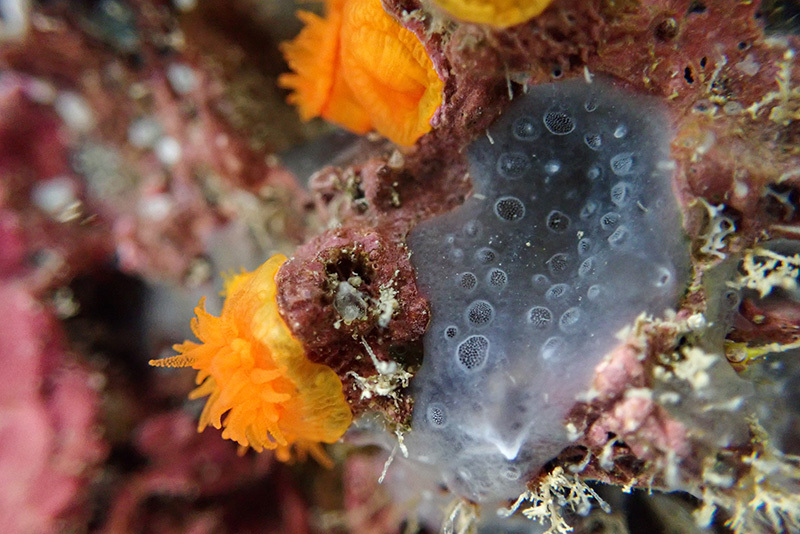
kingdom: Animalia
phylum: Porifera
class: Demospongiae
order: Poecilosclerida
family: Hymedesmiidae
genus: Phorbas
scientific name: Phorbas tenacior
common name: Bluish encrusting sponge
